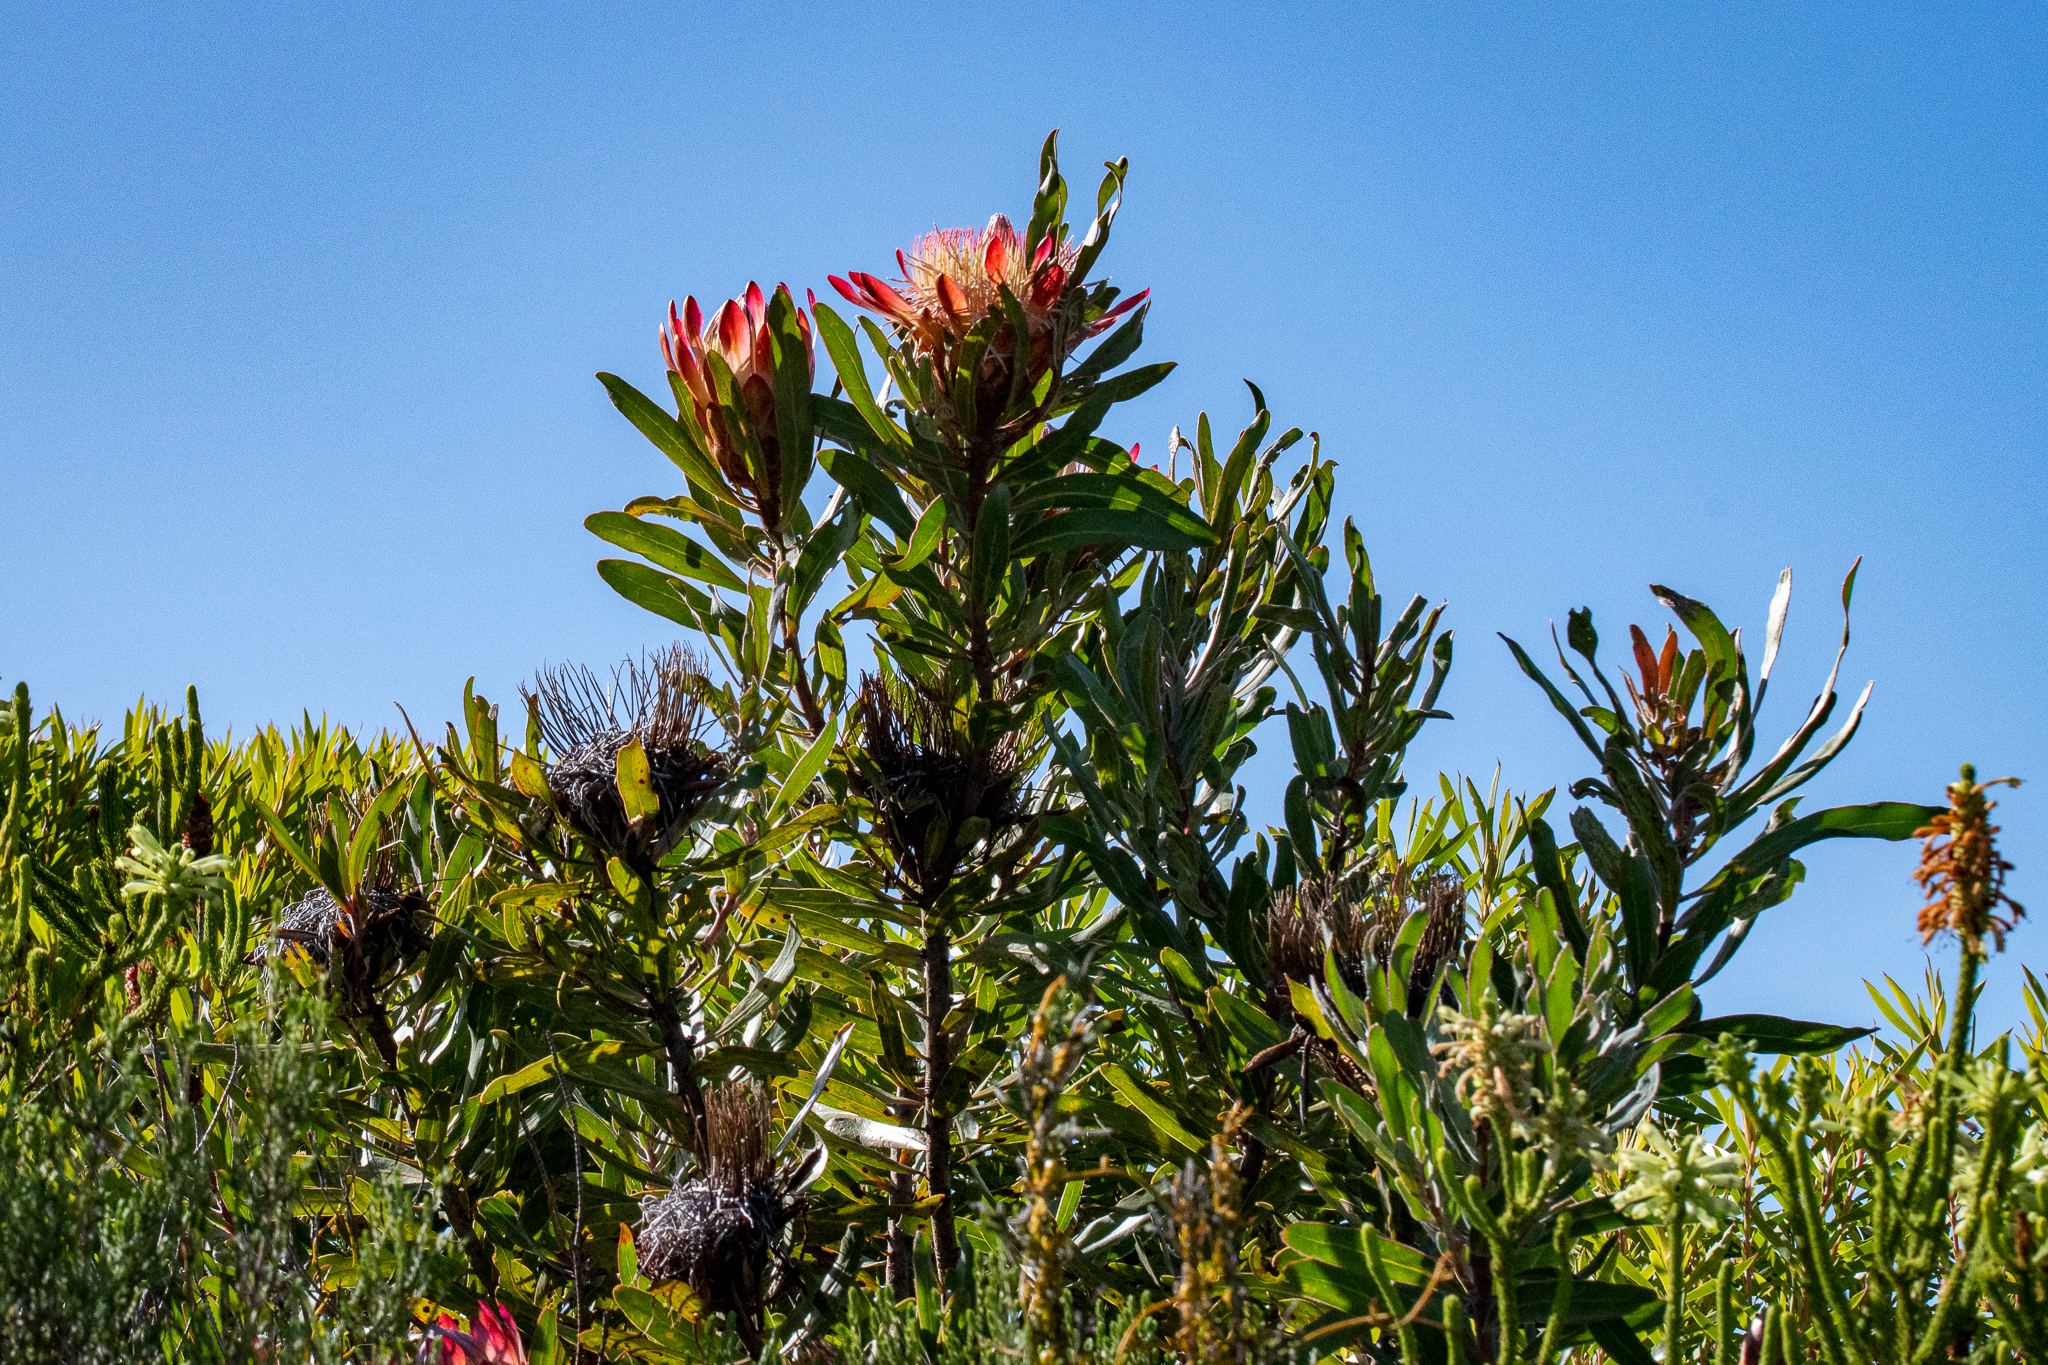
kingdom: Plantae
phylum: Tracheophyta
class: Magnoliopsida
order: Proteales
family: Proteaceae
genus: Protea
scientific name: Protea susannae
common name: Foetid-leaf sugarbush
